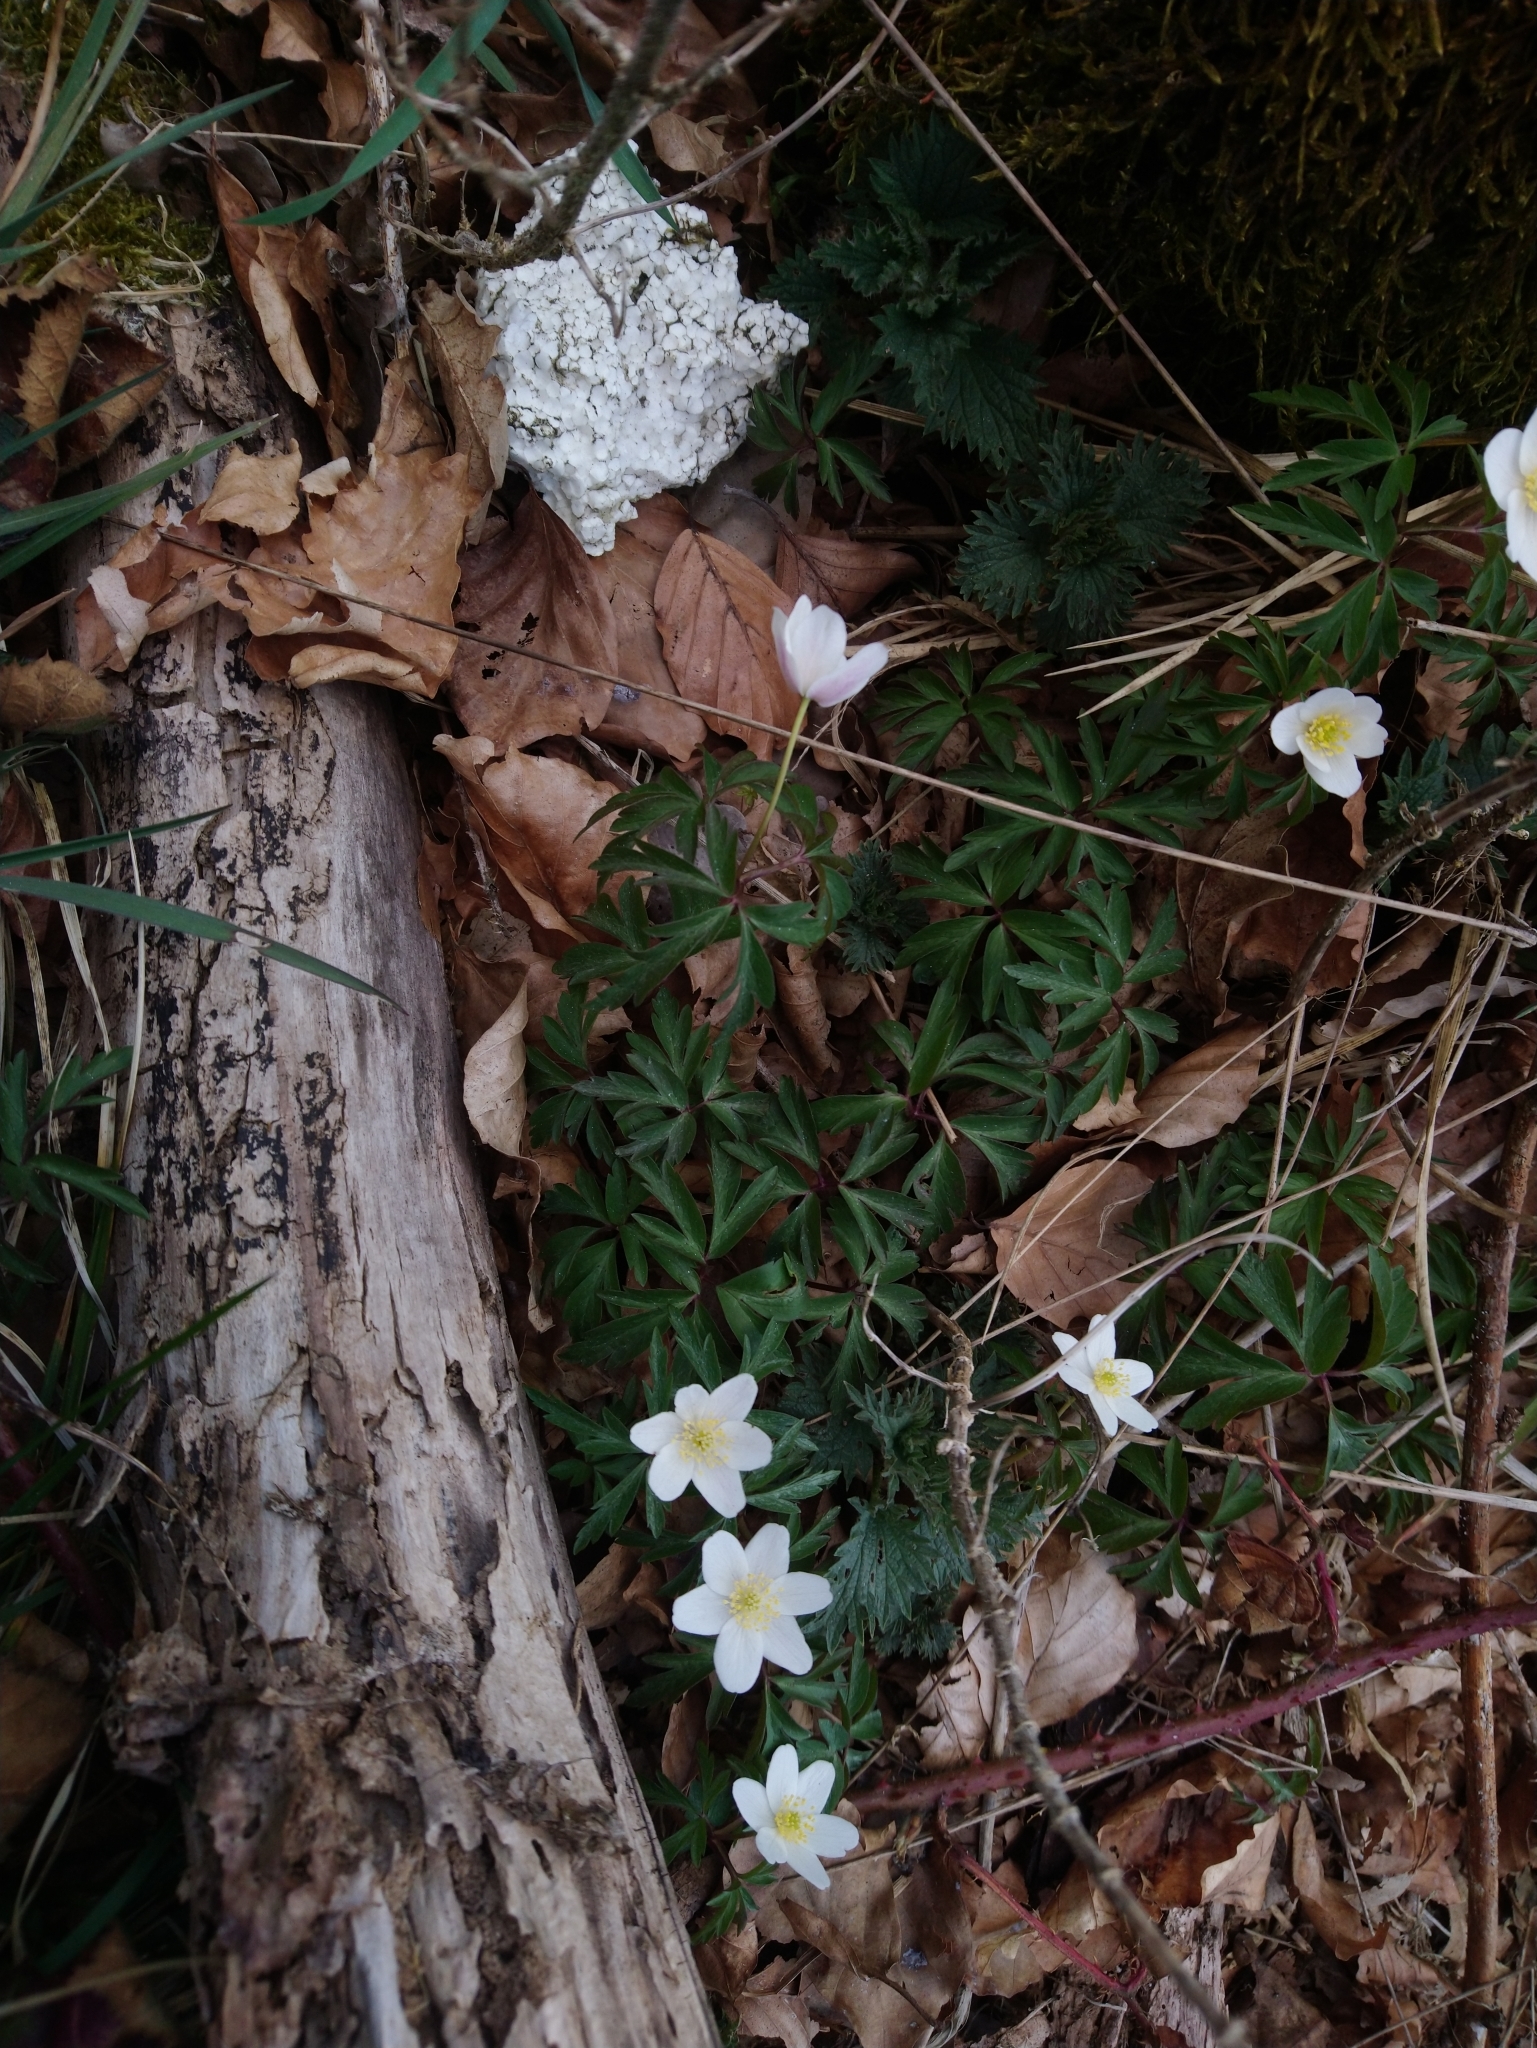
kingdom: Plantae
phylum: Tracheophyta
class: Magnoliopsida
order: Ranunculales
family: Ranunculaceae
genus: Anemone
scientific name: Anemone nemorosa
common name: Wood anemone
